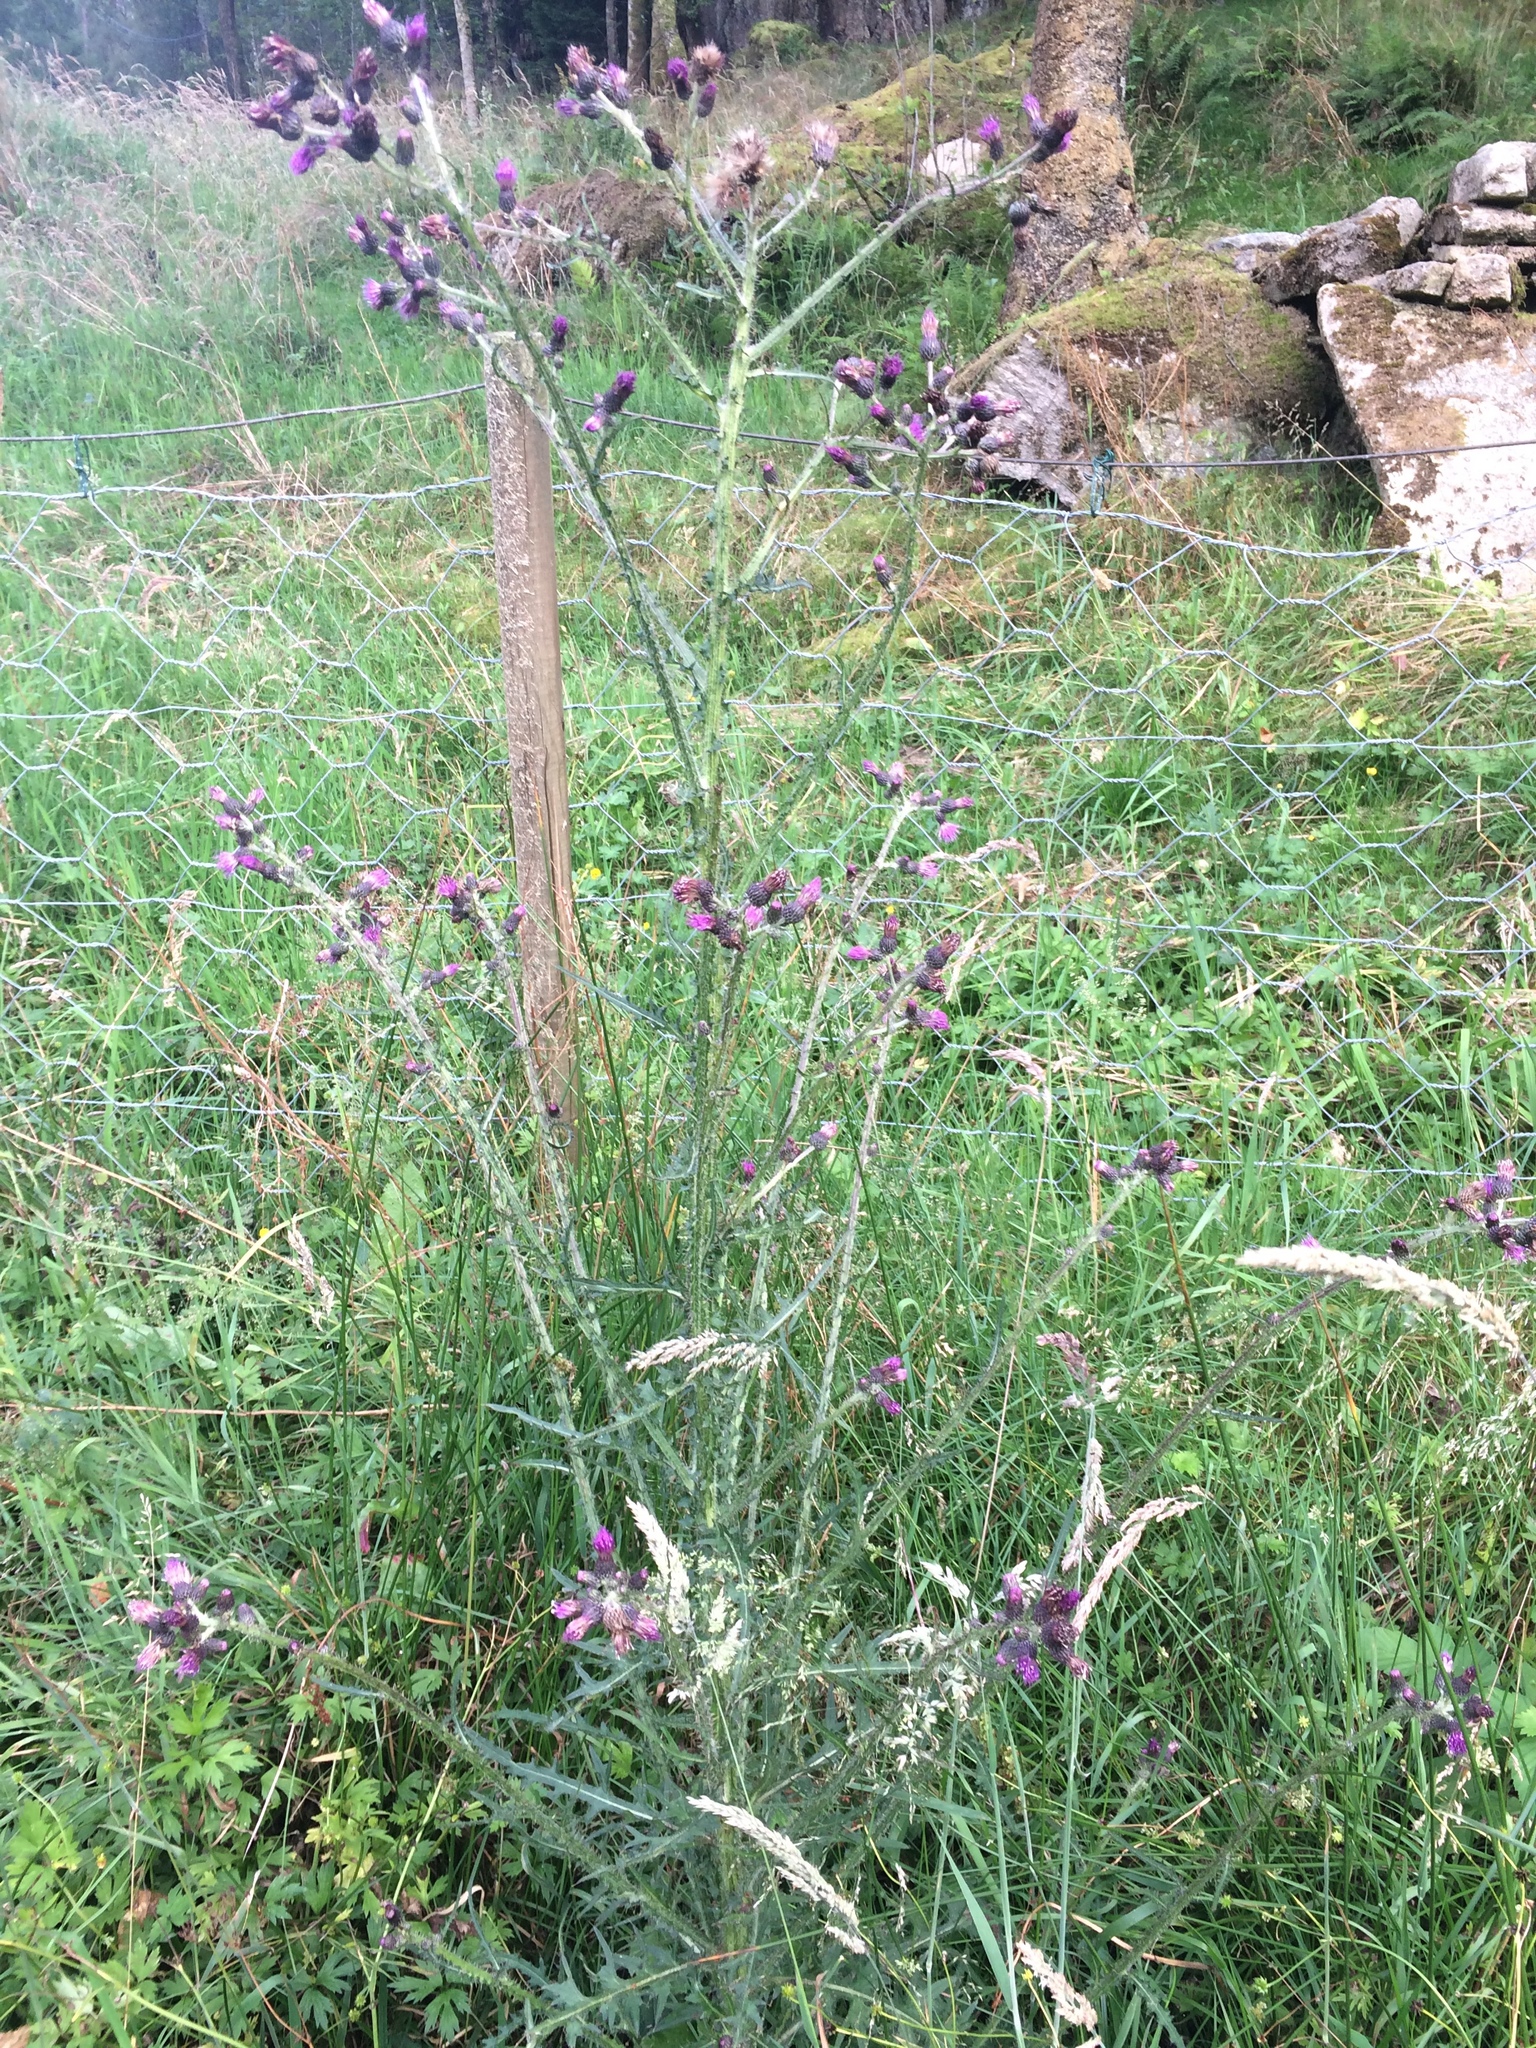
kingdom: Plantae
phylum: Tracheophyta
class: Magnoliopsida
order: Asterales
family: Asteraceae
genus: Cirsium
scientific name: Cirsium palustre
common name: Marsh thistle
